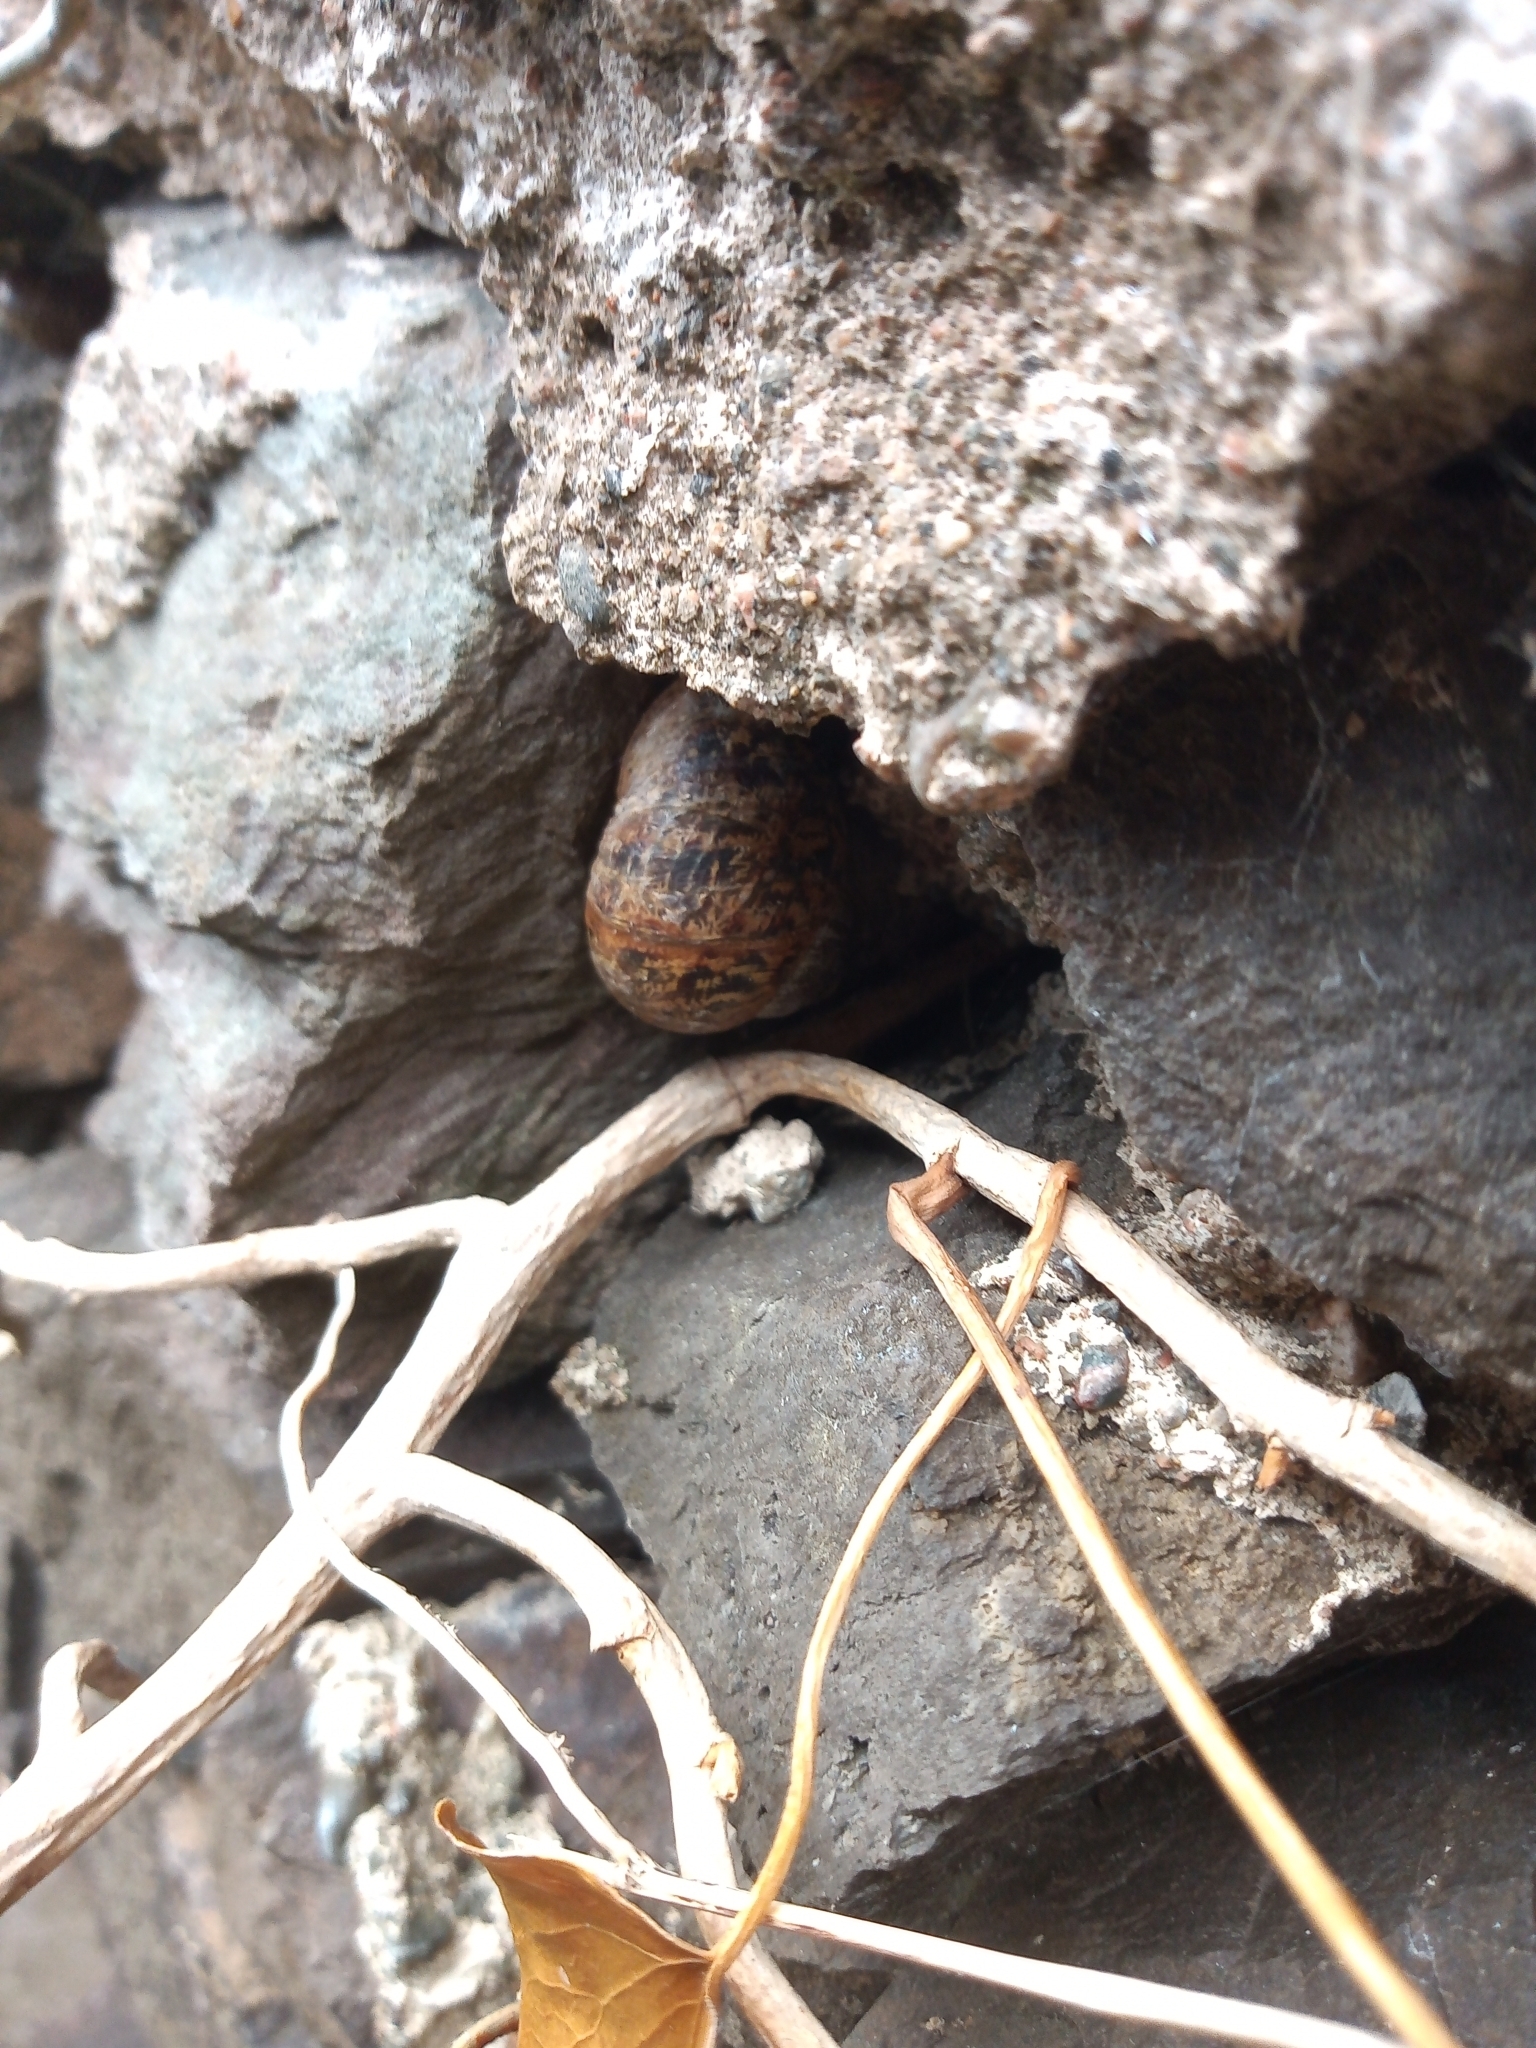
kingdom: Animalia
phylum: Mollusca
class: Gastropoda
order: Stylommatophora
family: Helicidae
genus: Cornu
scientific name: Cornu aspersum
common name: Brown garden snail
